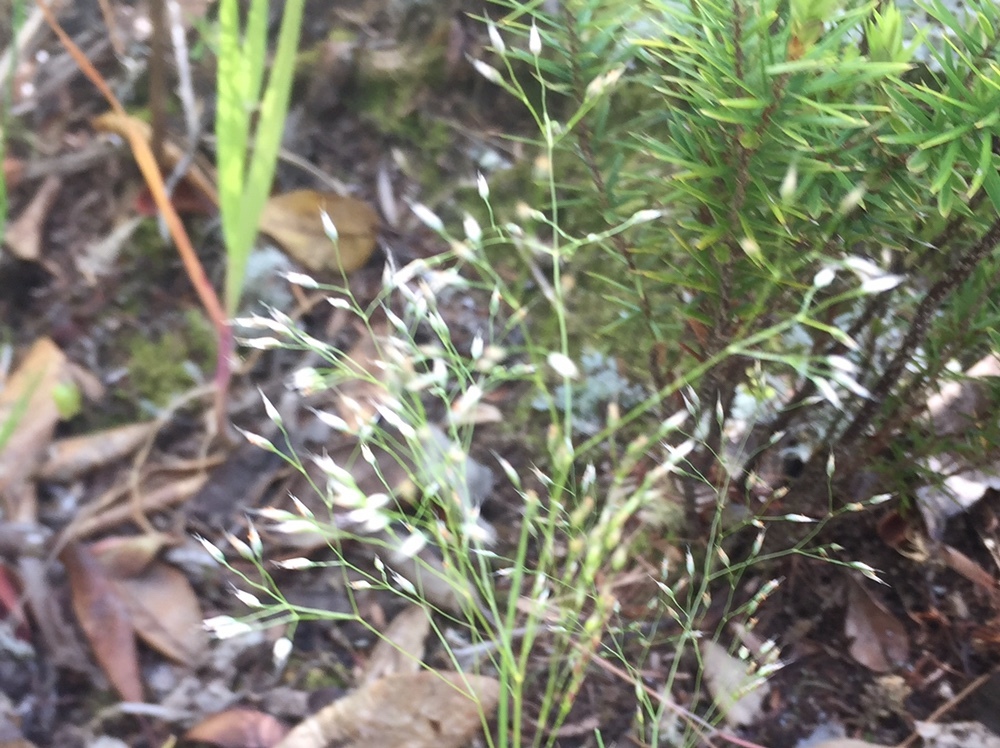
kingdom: Plantae
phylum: Tracheophyta
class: Liliopsida
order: Poales
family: Poaceae
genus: Aira
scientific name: Aira caryophyllea
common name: Silver hairgrass
